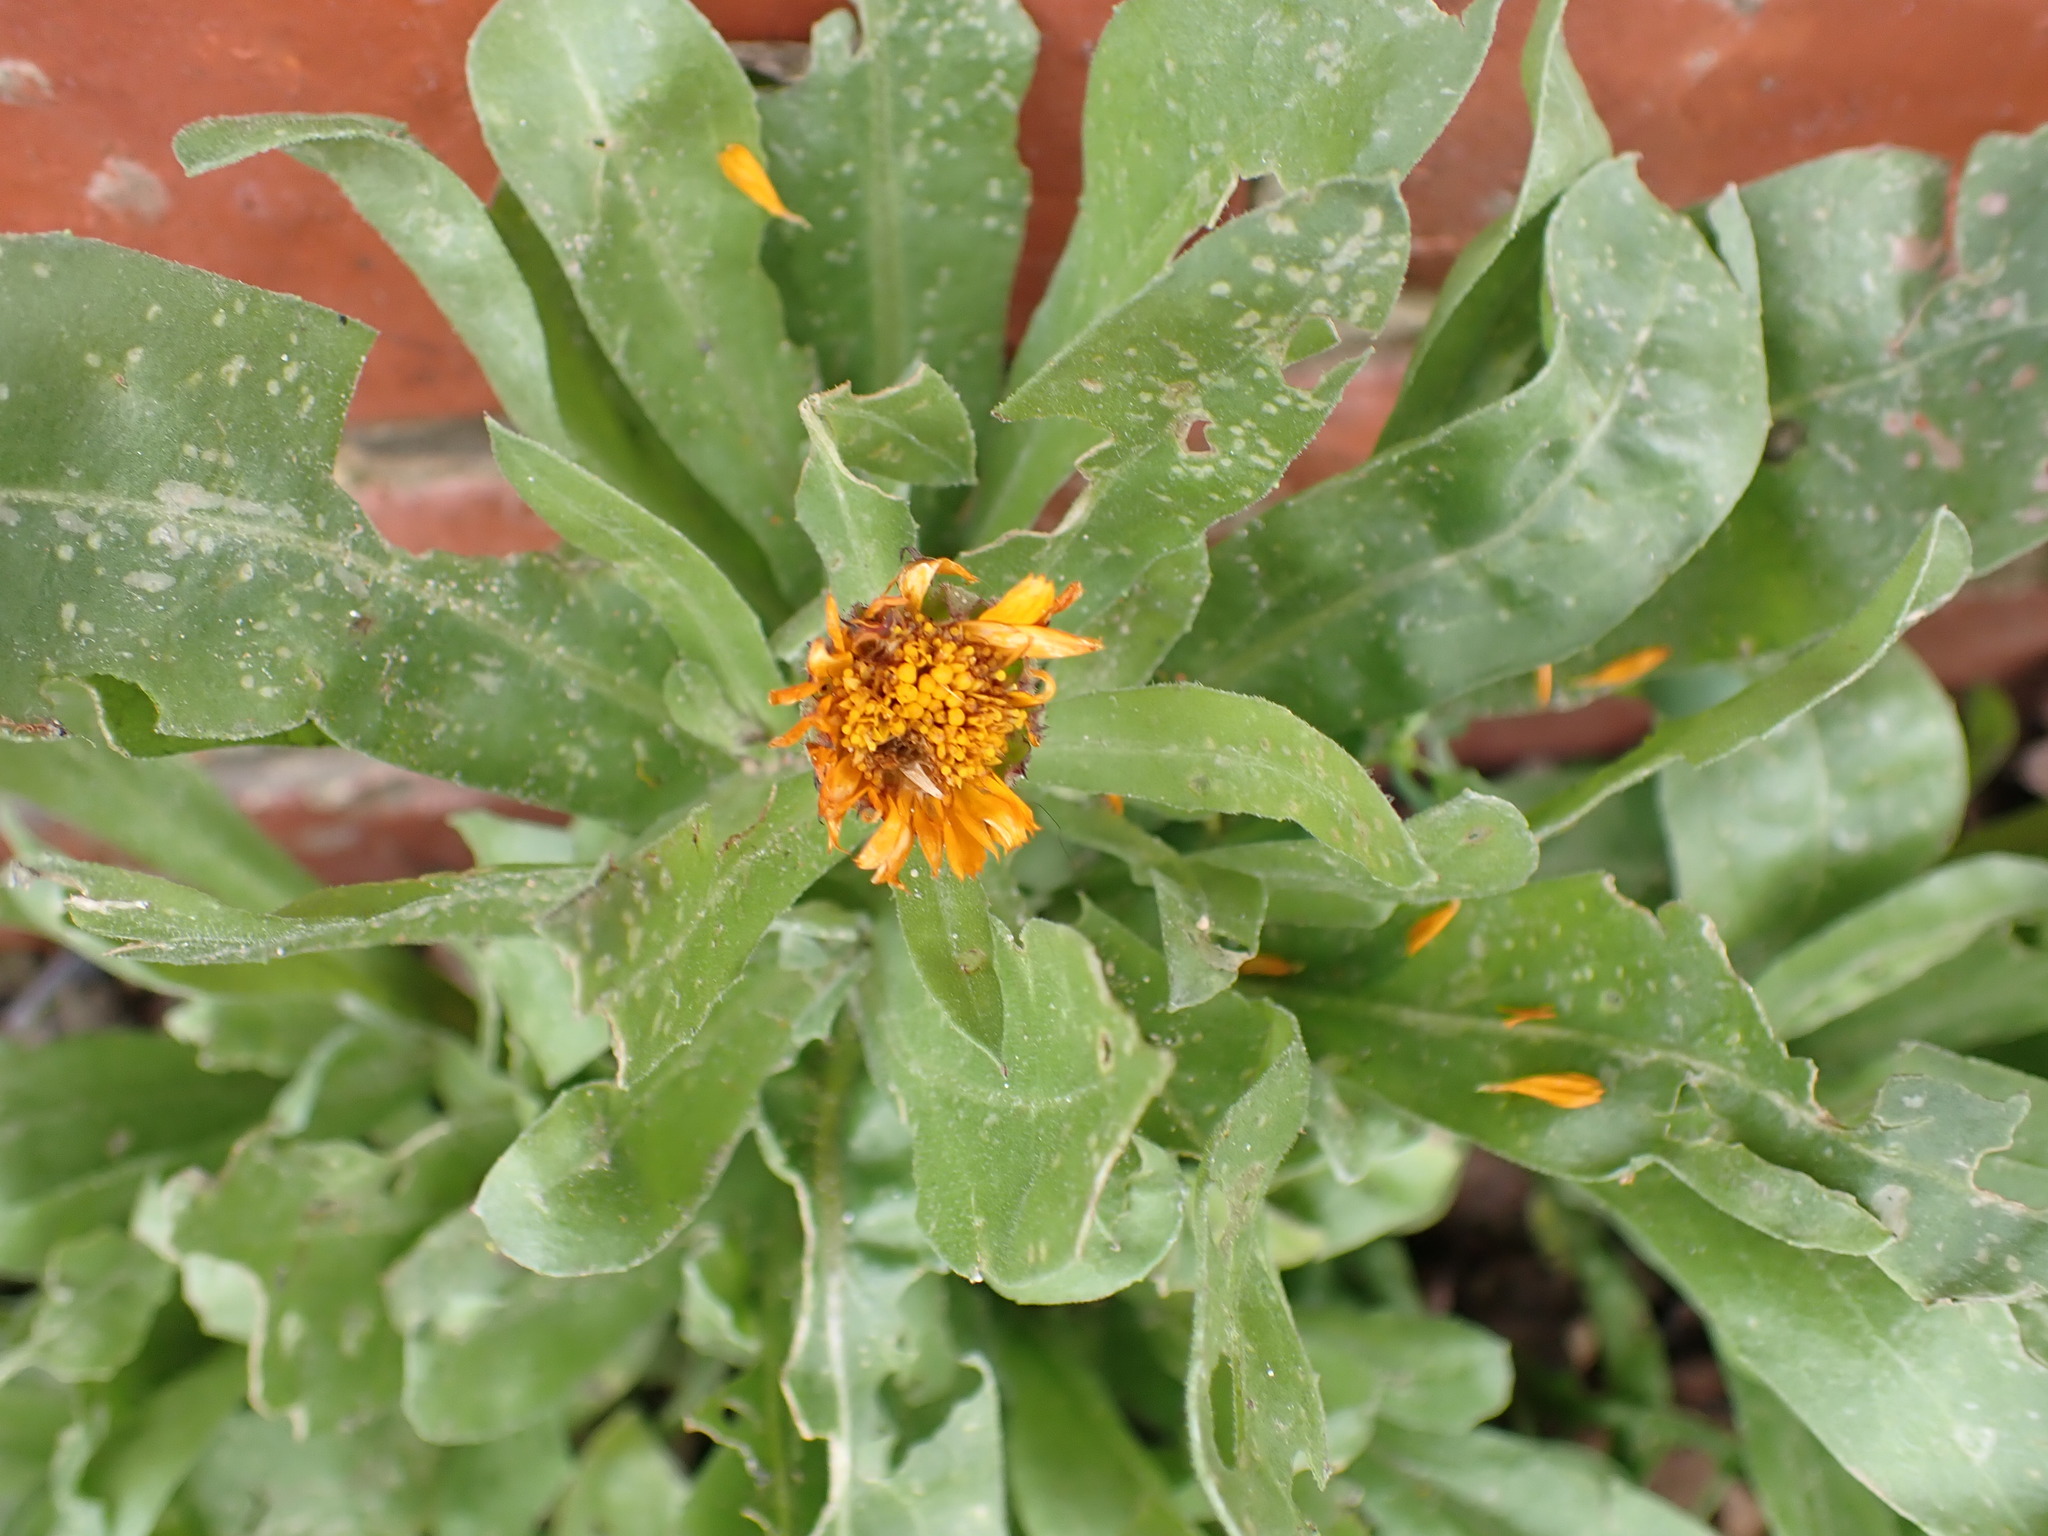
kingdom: Plantae
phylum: Tracheophyta
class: Magnoliopsida
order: Asterales
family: Asteraceae
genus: Calendula
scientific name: Calendula officinalis
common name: Pot marigold
